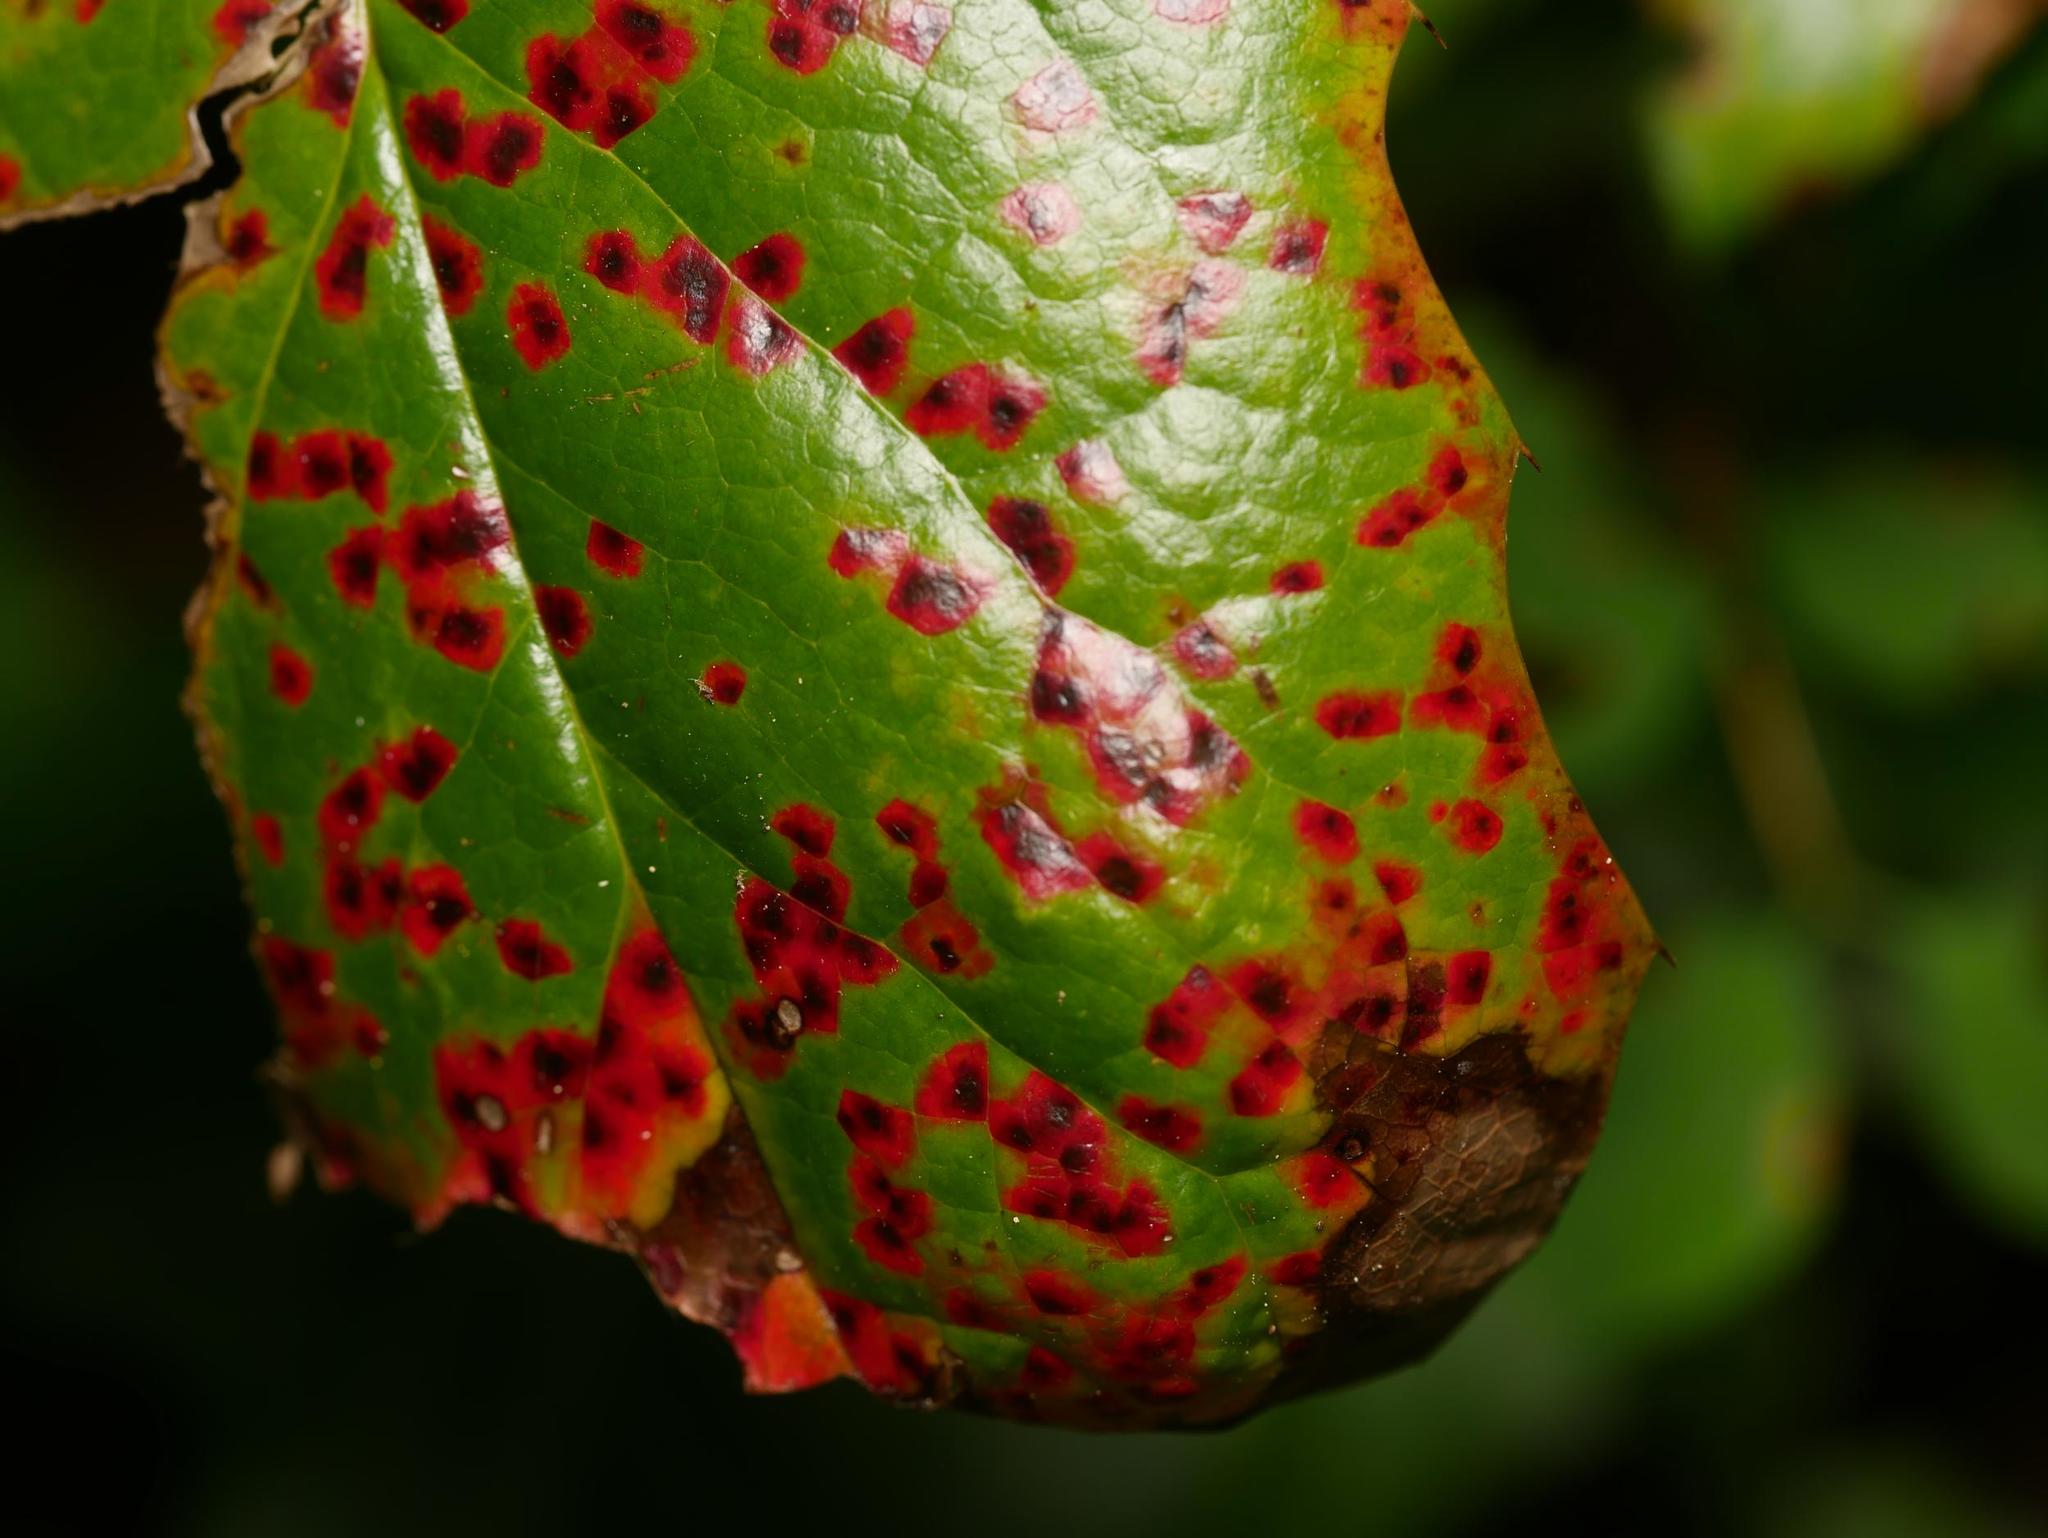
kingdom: Fungi
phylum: Basidiomycota
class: Pucciniomycetes
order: Pucciniales
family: Pucciniaceae
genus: Cumminsiella
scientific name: Cumminsiella mirabilissima
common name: Mahonia rust
